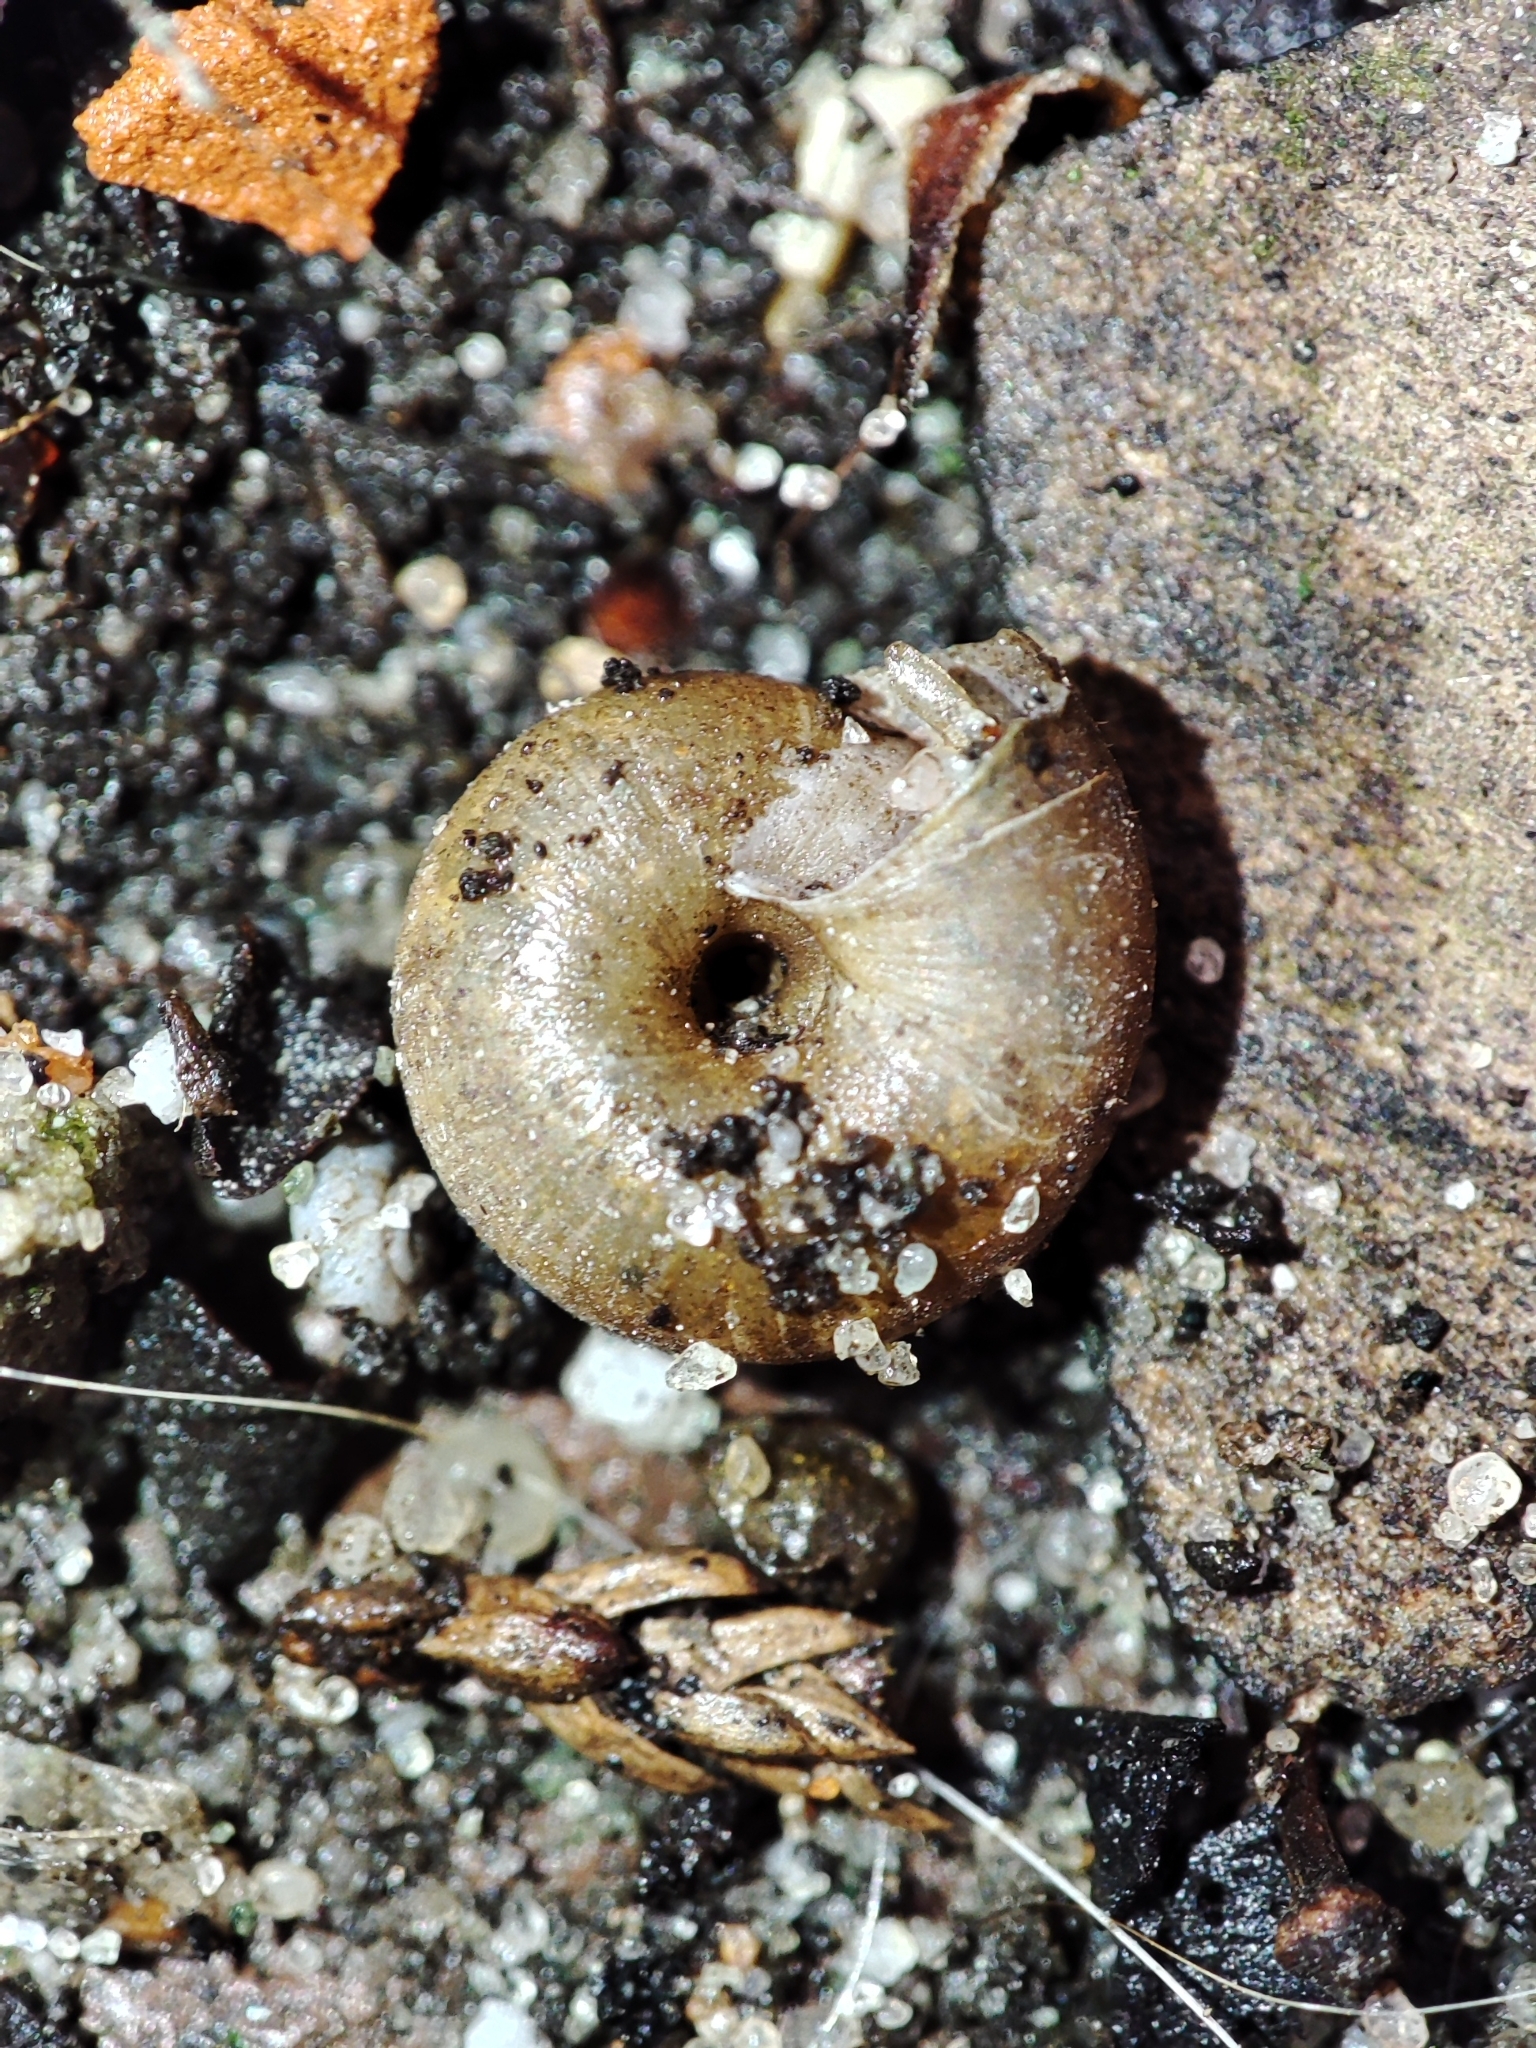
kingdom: Animalia
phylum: Mollusca
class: Gastropoda
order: Stylommatophora
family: Hygromiidae
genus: Trochulus
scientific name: Trochulus hispidus
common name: Hairy snail
